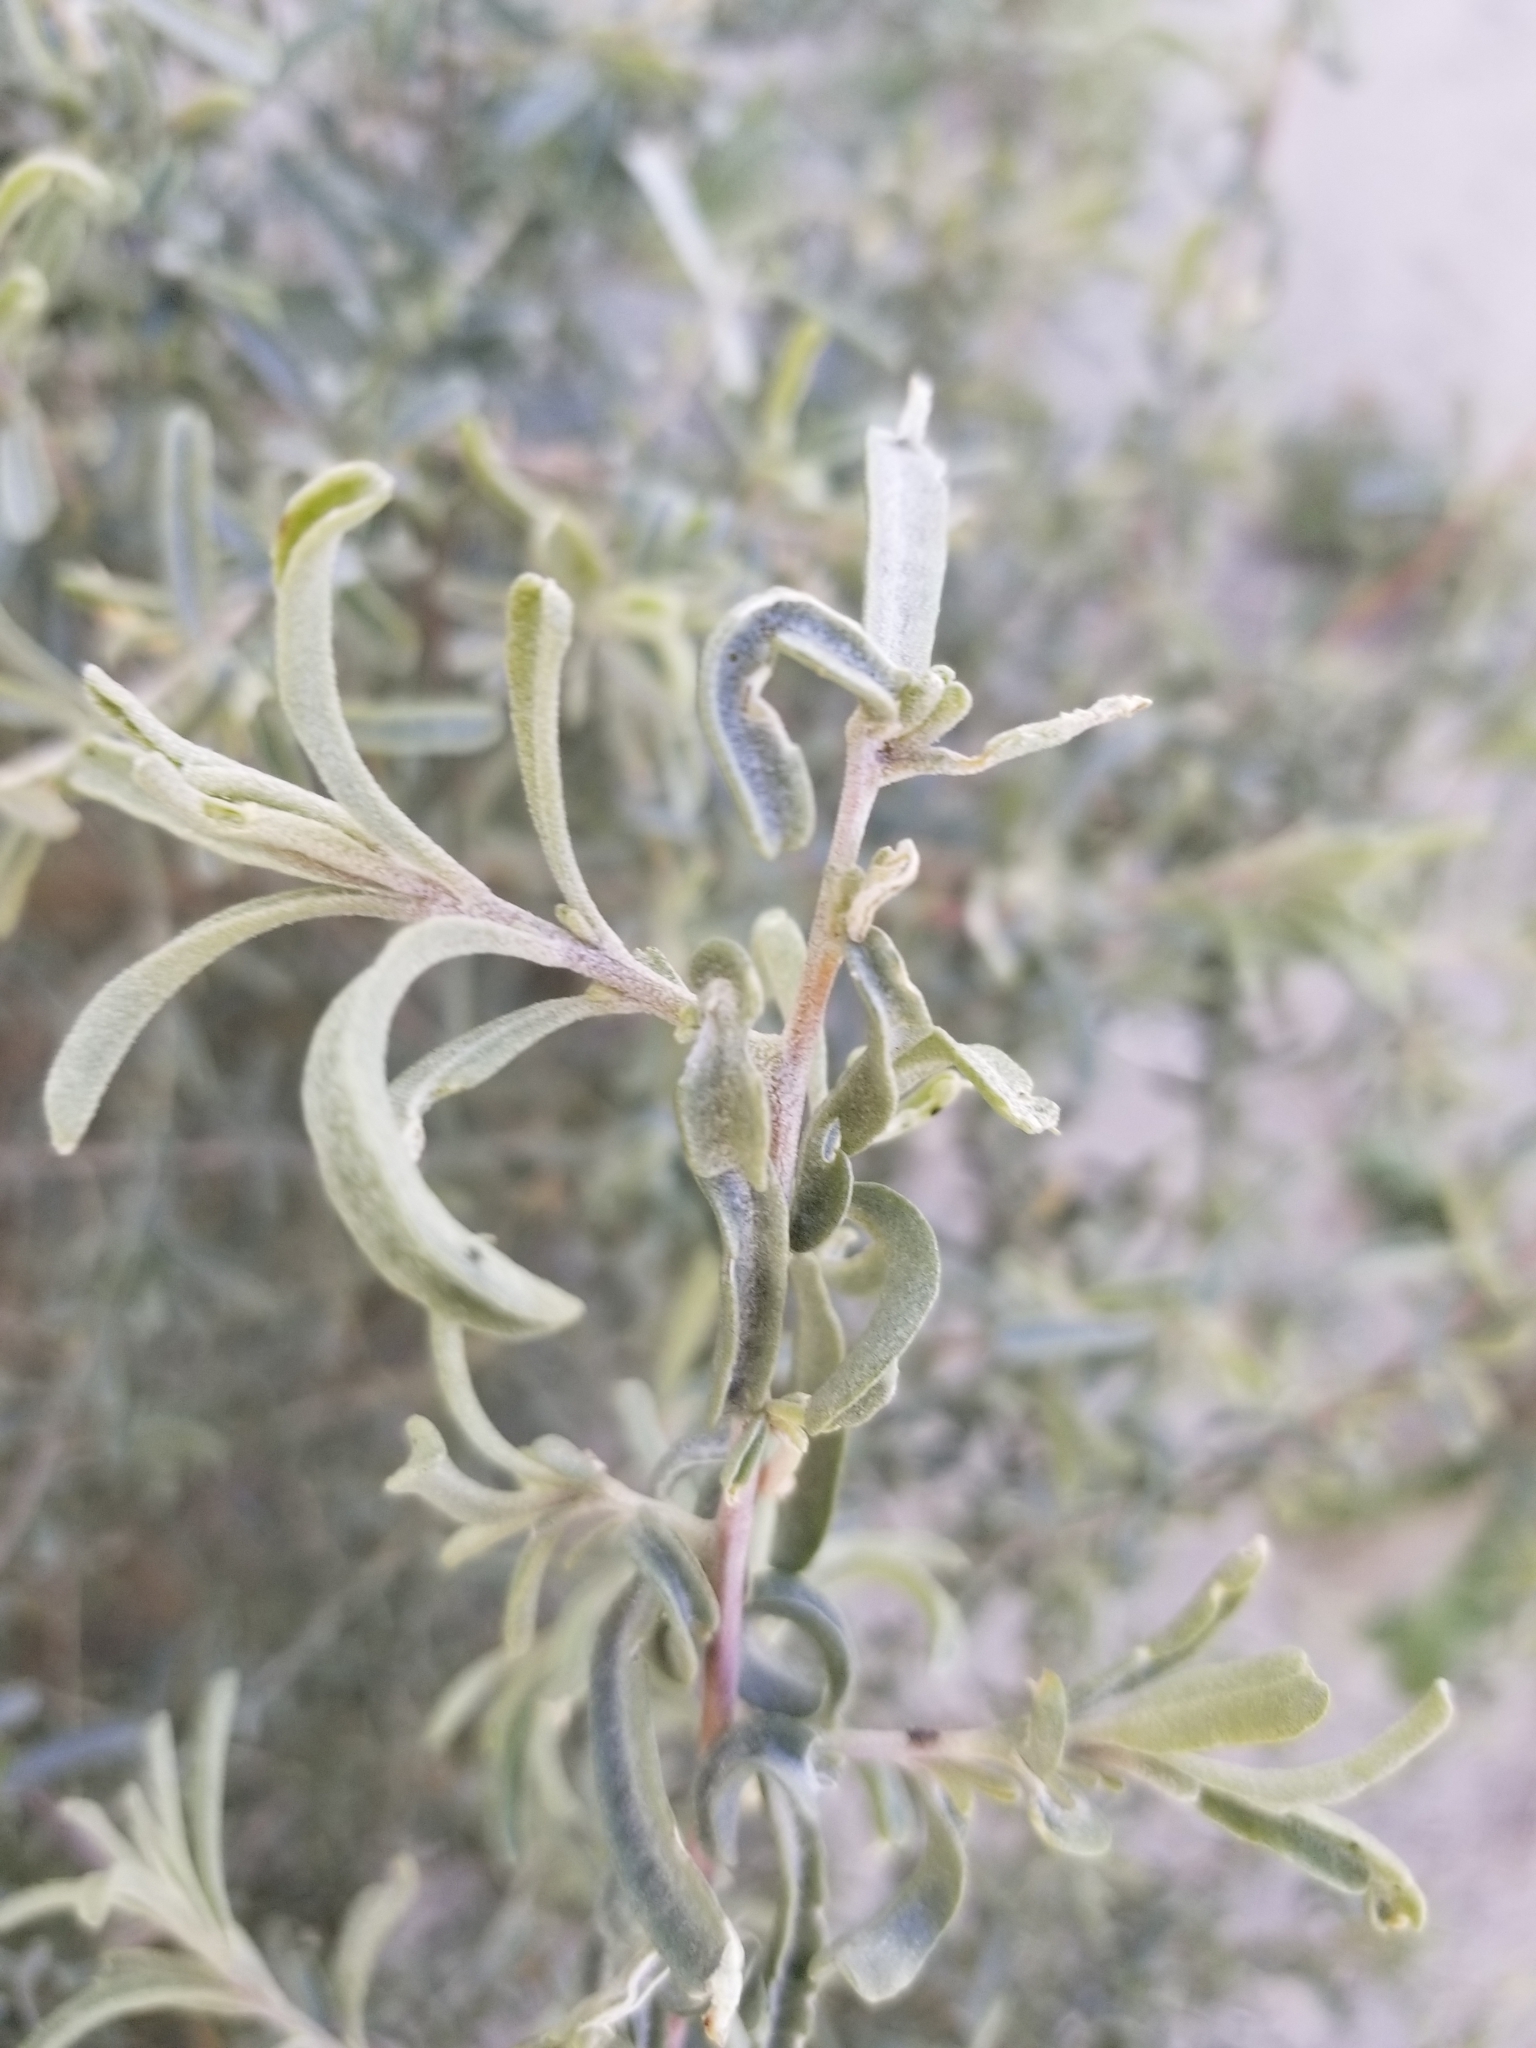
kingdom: Plantae
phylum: Tracheophyta
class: Magnoliopsida
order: Caryophyllales
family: Amaranthaceae
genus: Atriplex
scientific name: Atriplex canescens
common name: Four-wing saltbush
